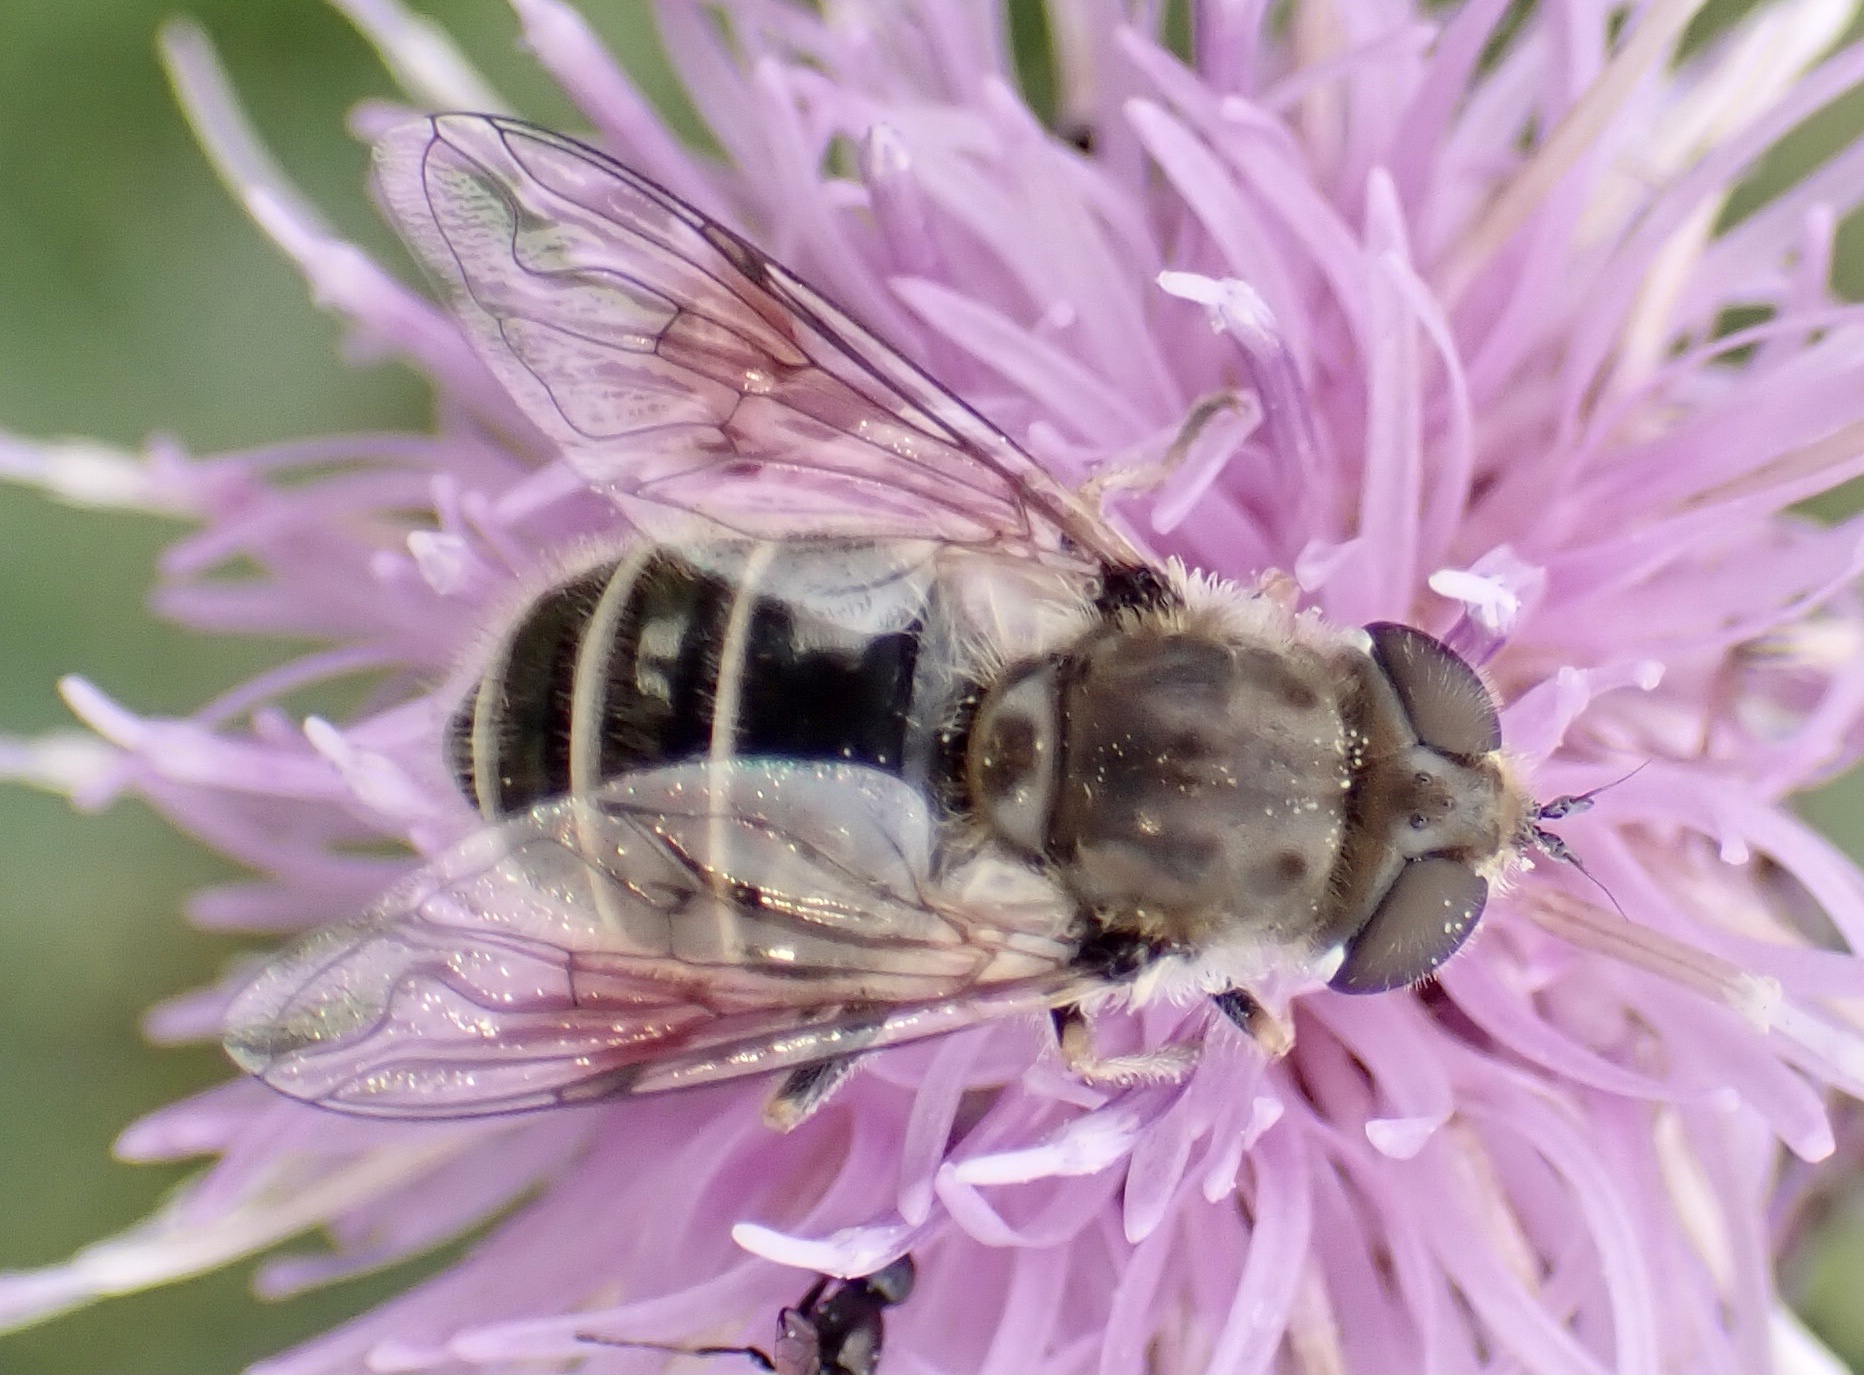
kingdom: Animalia
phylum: Arthropoda
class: Insecta
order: Diptera
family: Syrphidae
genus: Eristalis
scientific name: Eristalis abusivus
